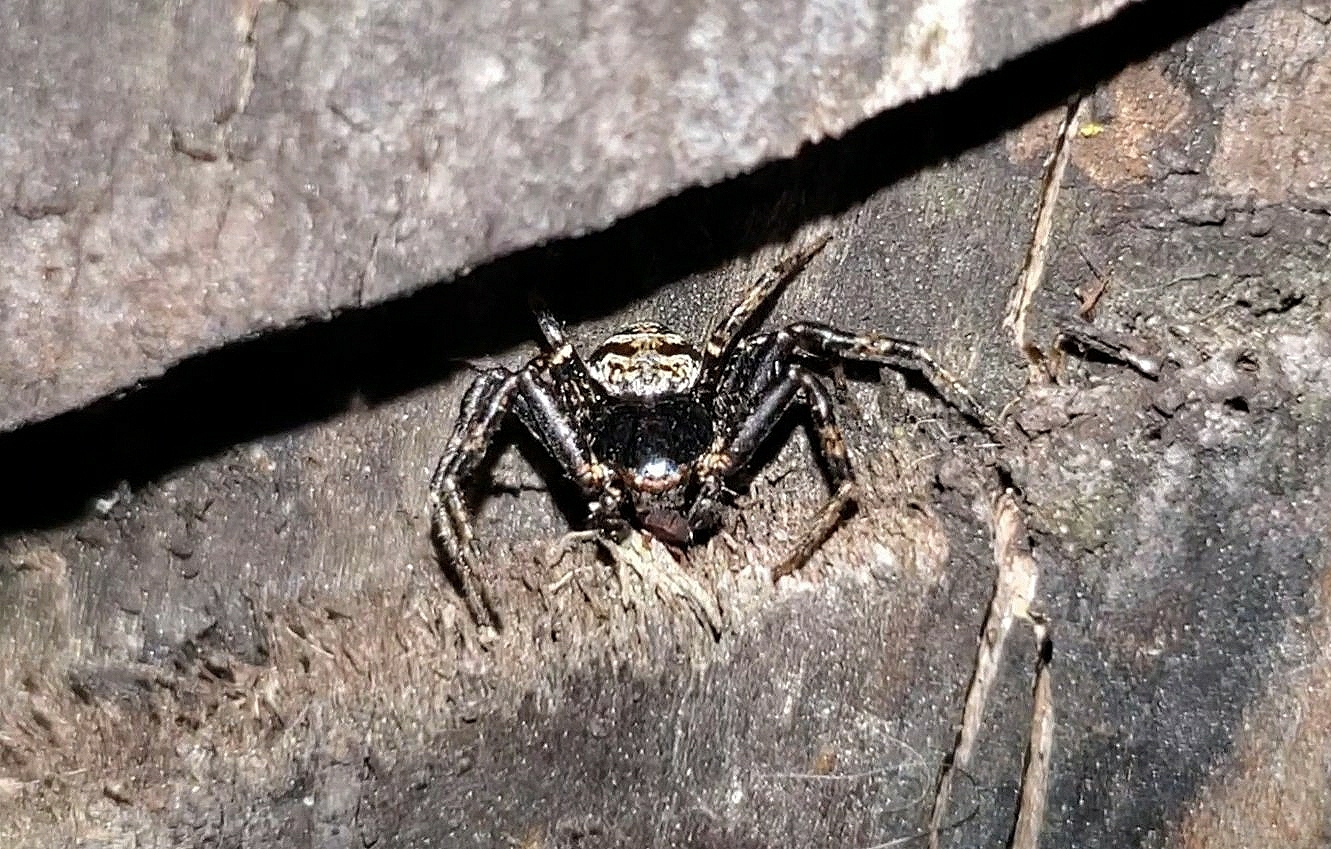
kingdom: Animalia
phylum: Arthropoda
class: Arachnida
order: Araneae
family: Thomisidae
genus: Bassaniana
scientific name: Bassaniana versicolor
